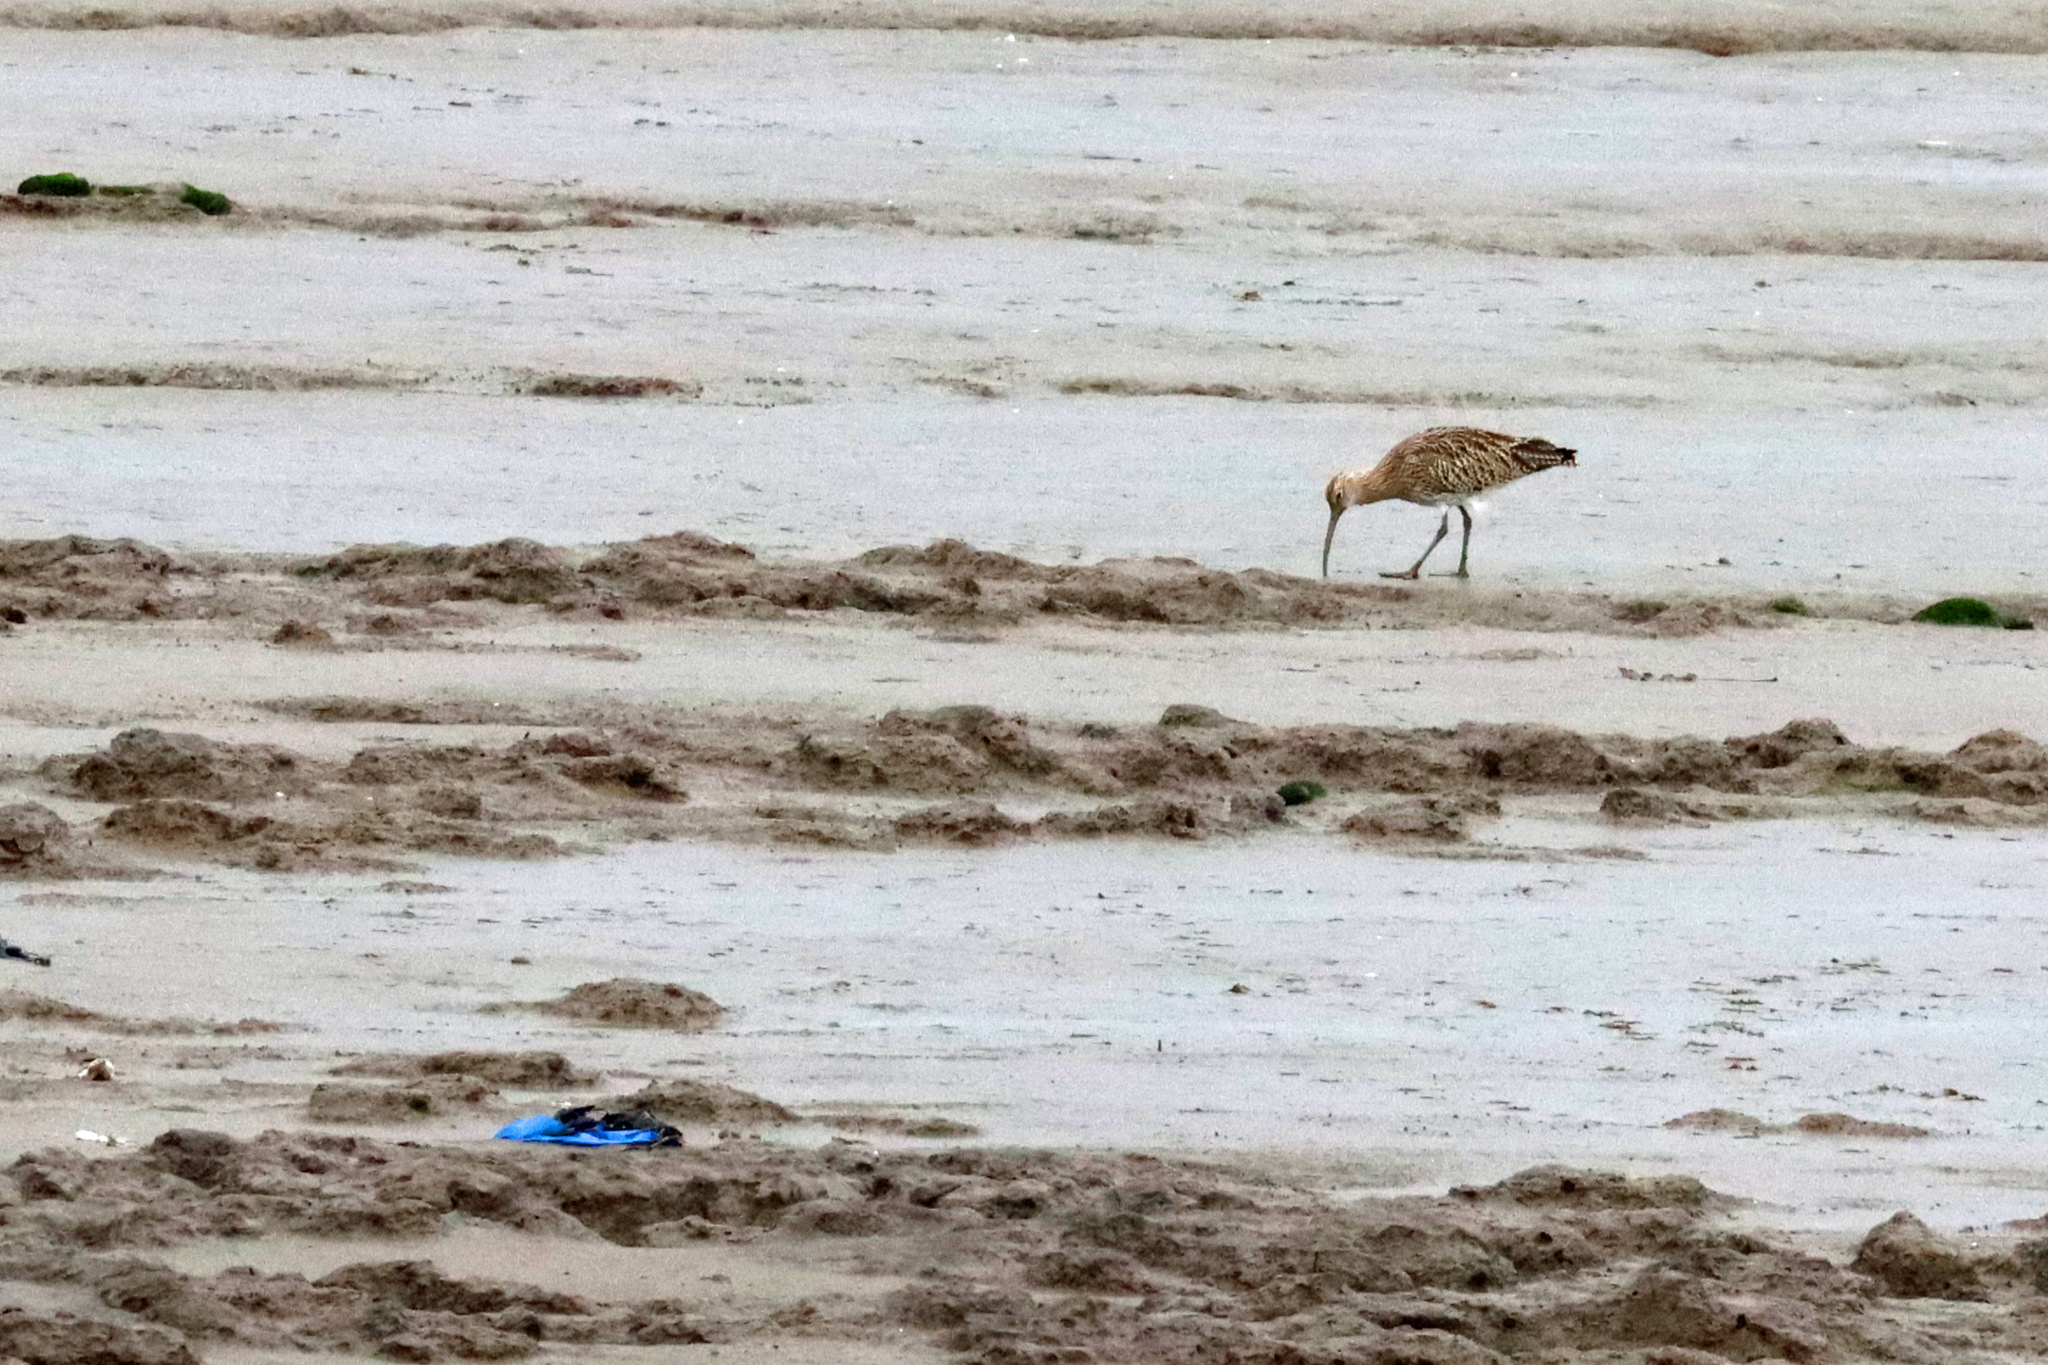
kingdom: Animalia
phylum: Chordata
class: Aves
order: Charadriiformes
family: Scolopacidae
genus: Numenius
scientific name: Numenius arquata
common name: Eurasian curlew
